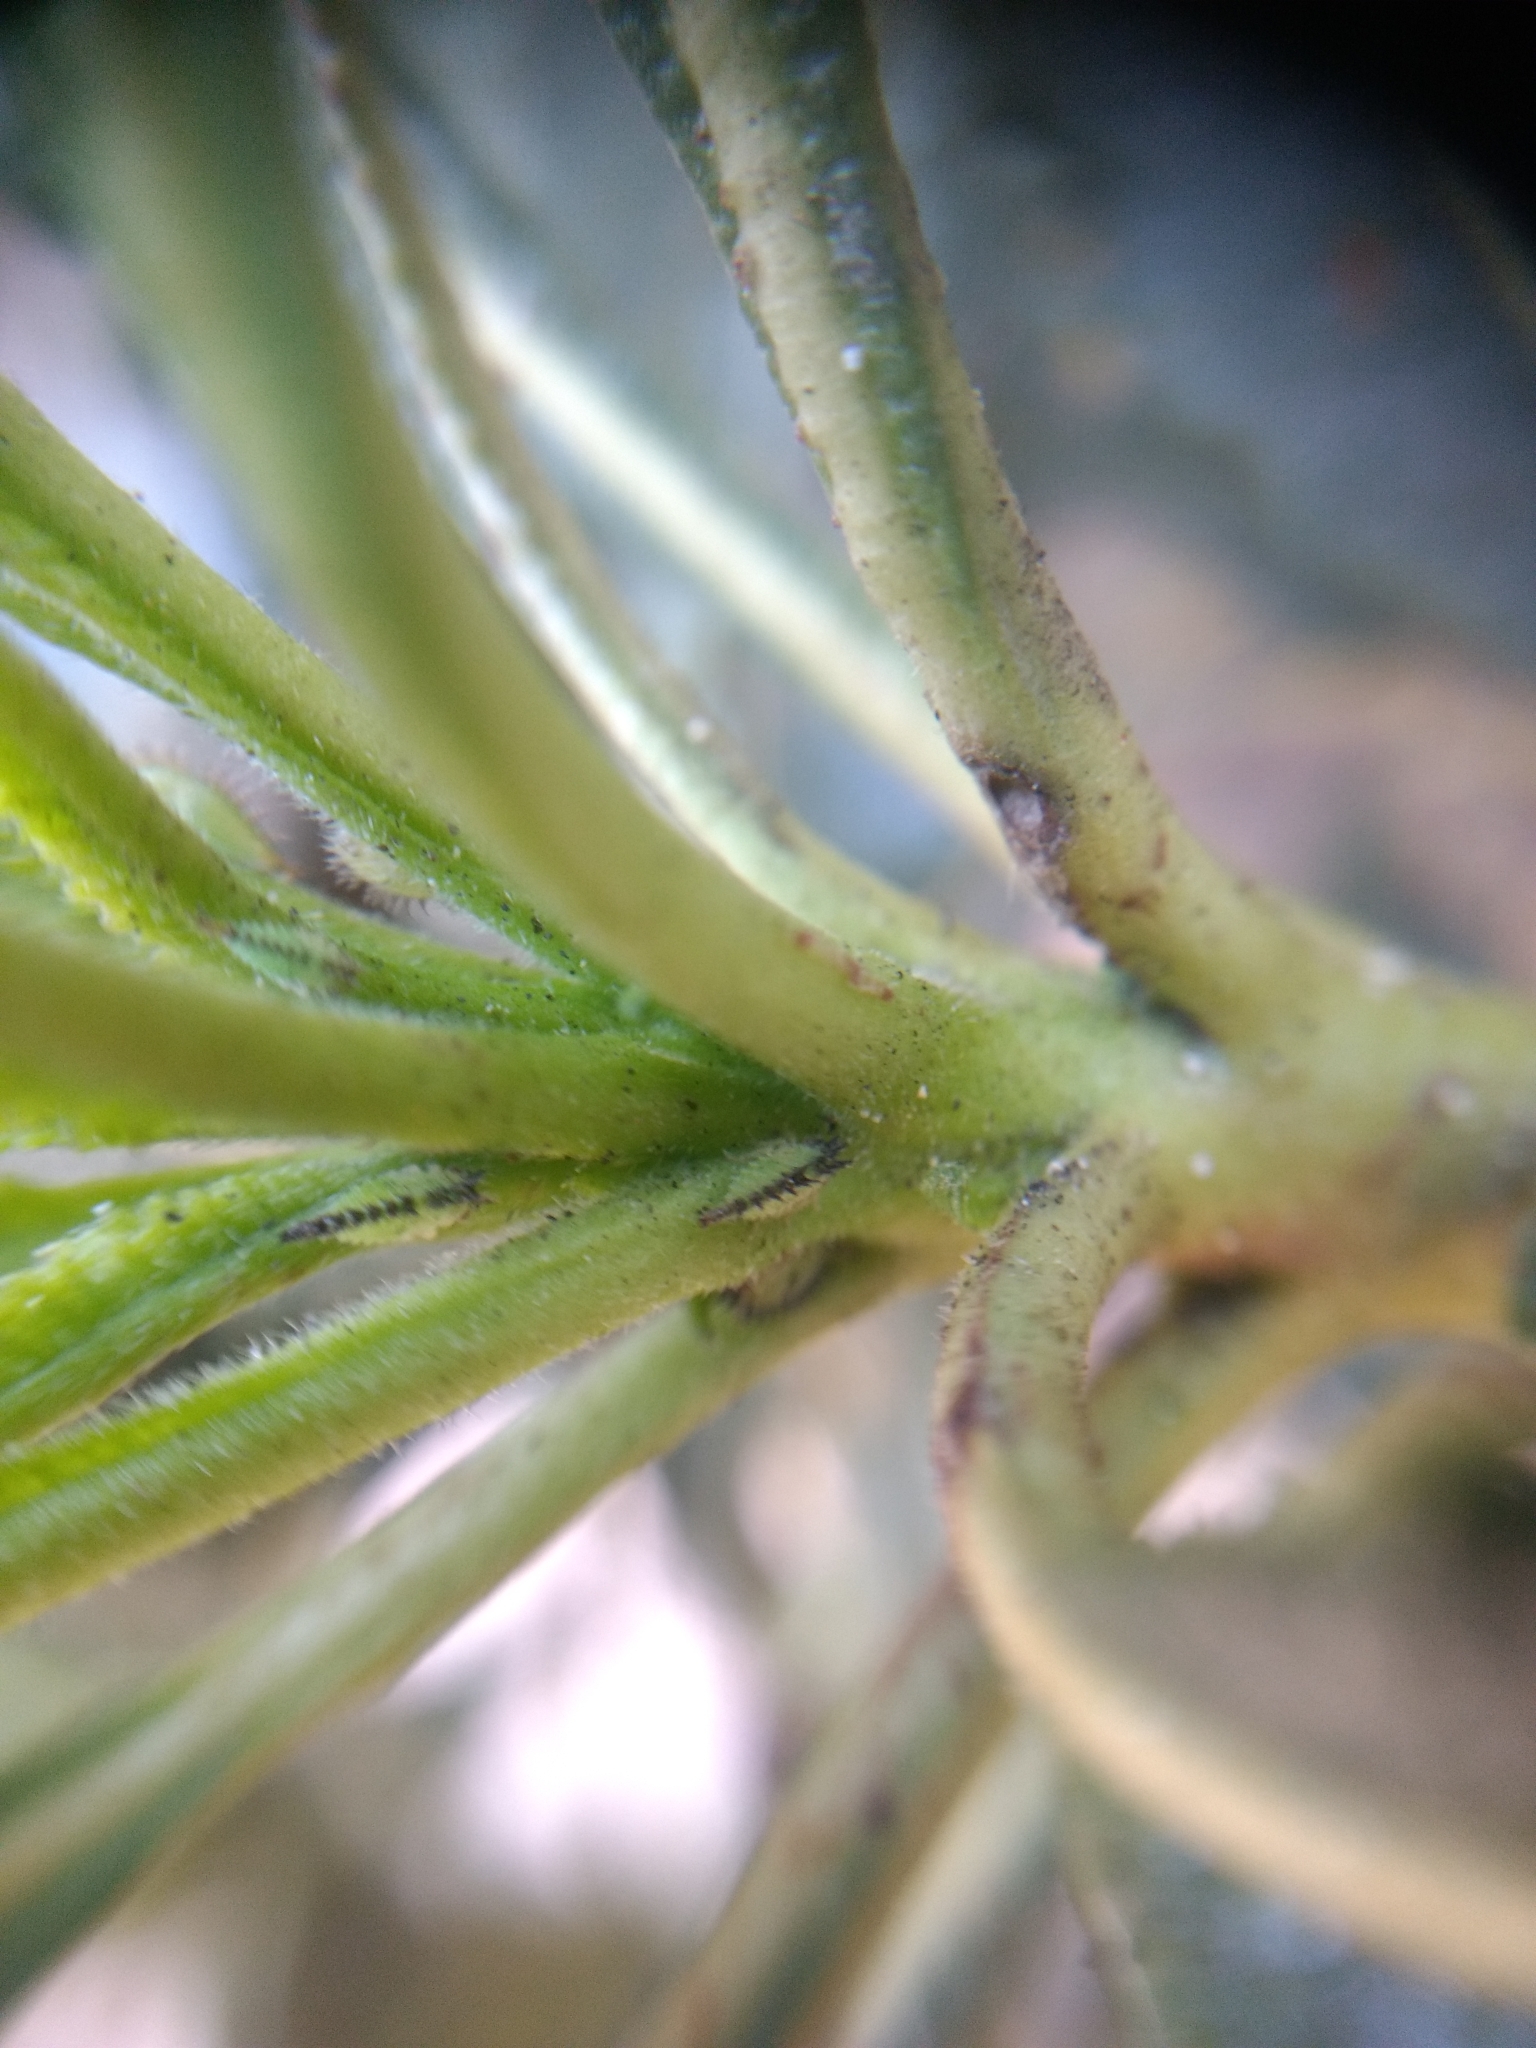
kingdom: Plantae
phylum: Tracheophyta
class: Magnoliopsida
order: Boraginales
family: Namaceae
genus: Eriodictyon
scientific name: Eriodictyon trichocalyx
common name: Hairy yerba-santa
